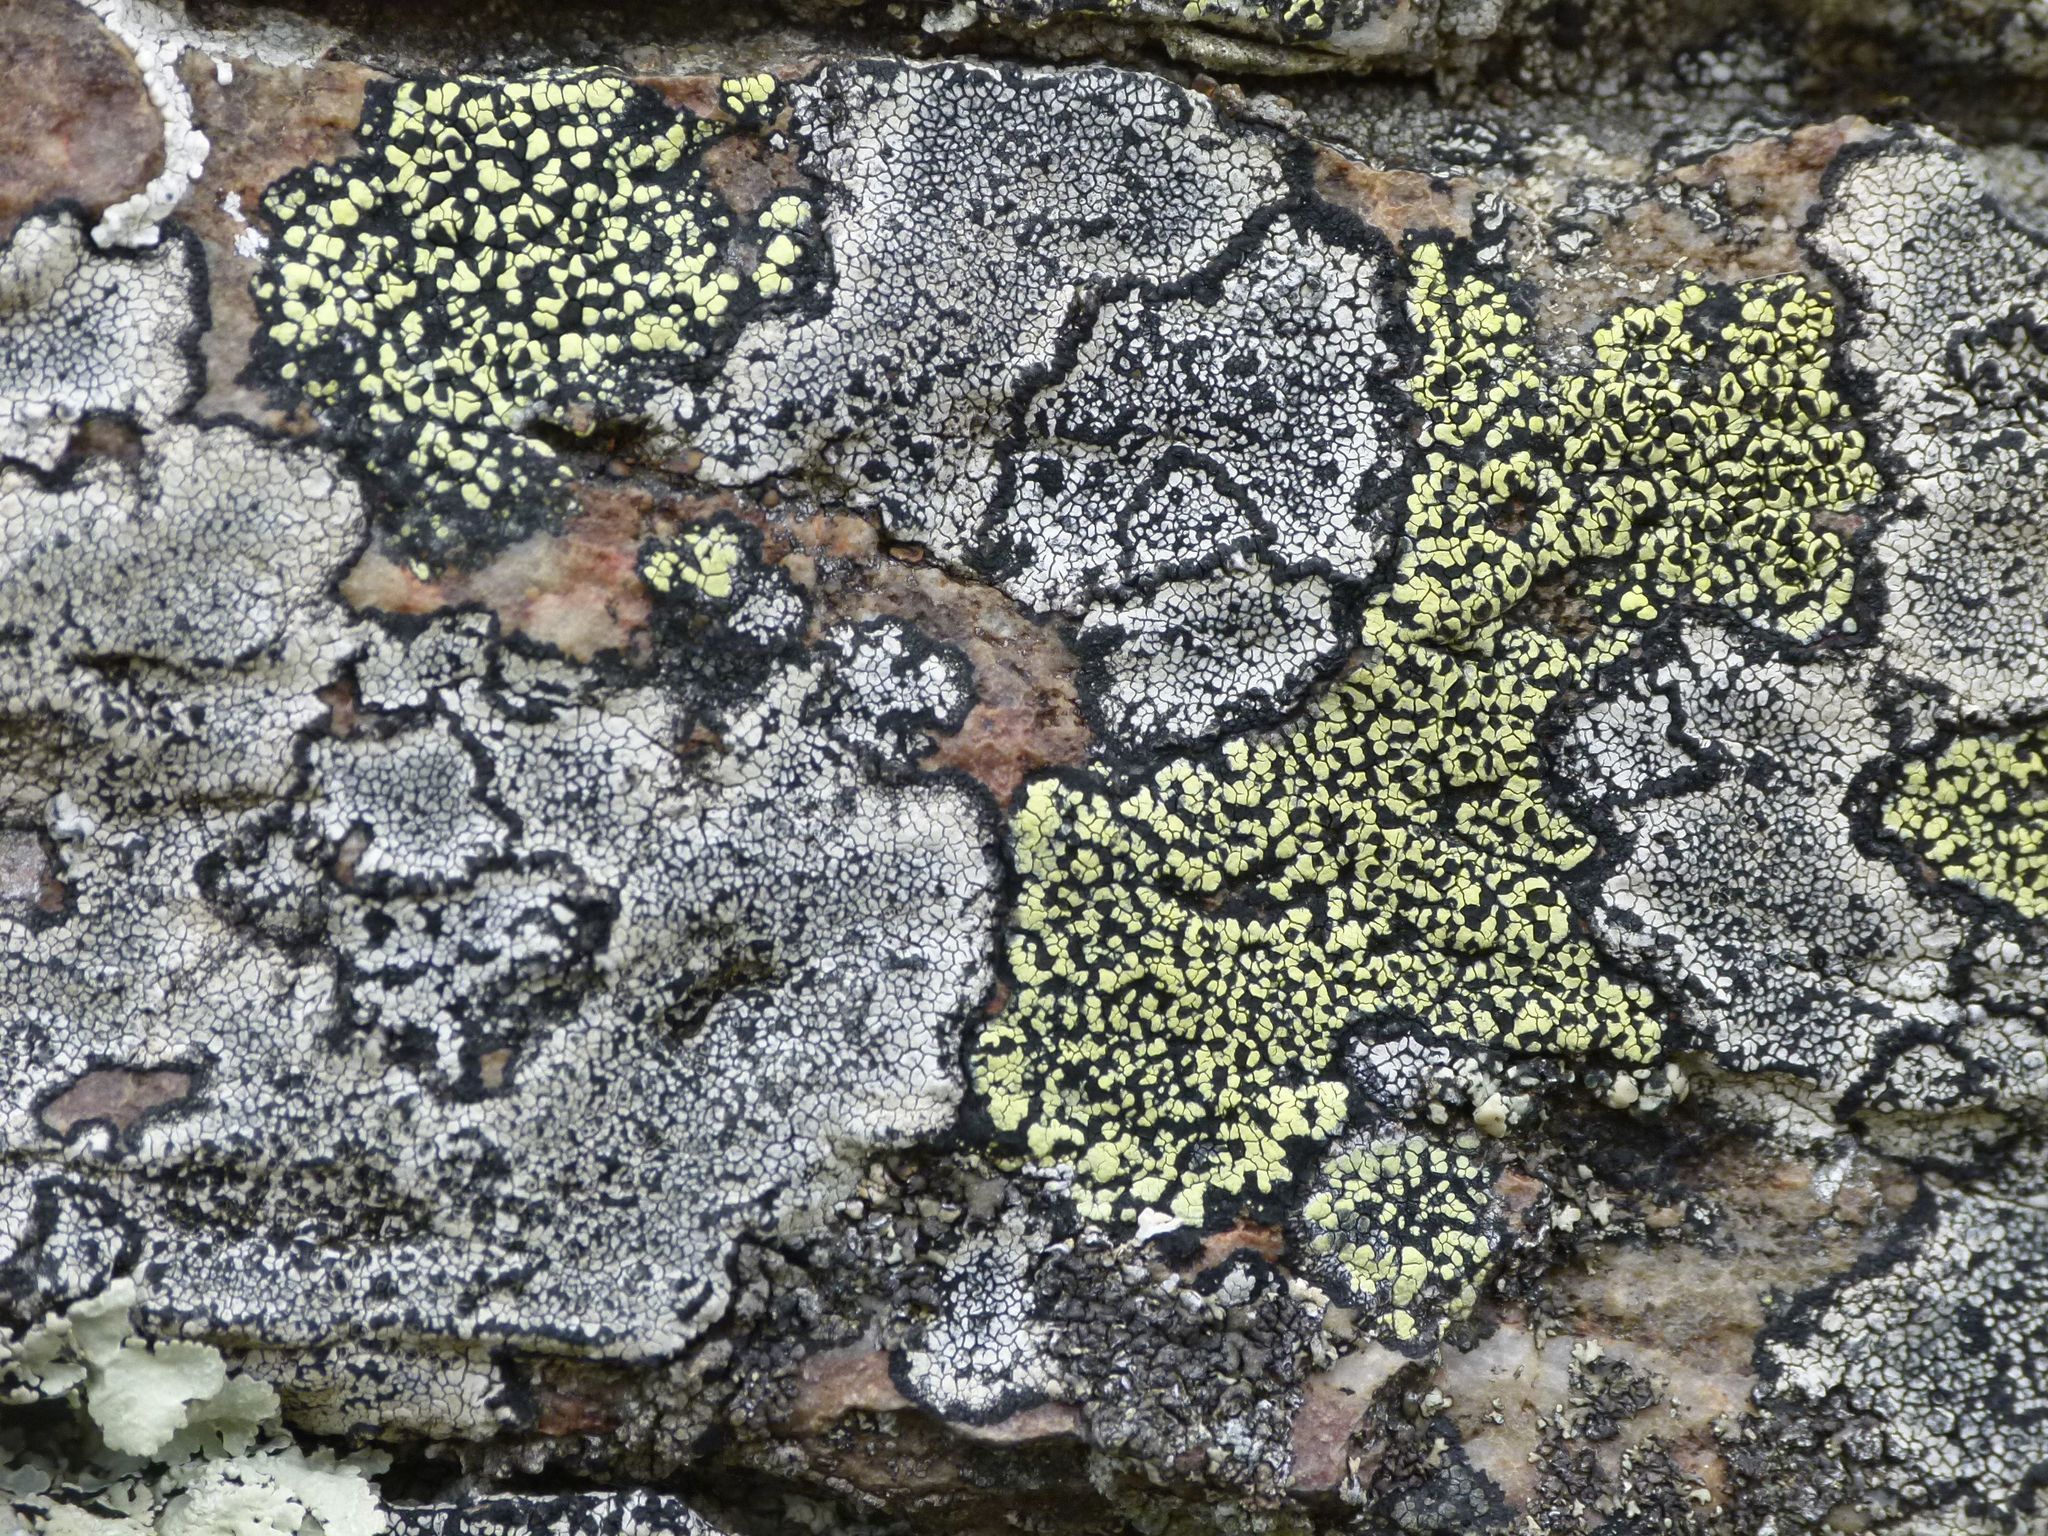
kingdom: Fungi
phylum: Ascomycota
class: Lecanoromycetes
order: Rhizocarpales
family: Rhizocarpaceae
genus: Rhizocarpon
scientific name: Rhizocarpon geographicum
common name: Yellow map lichen
